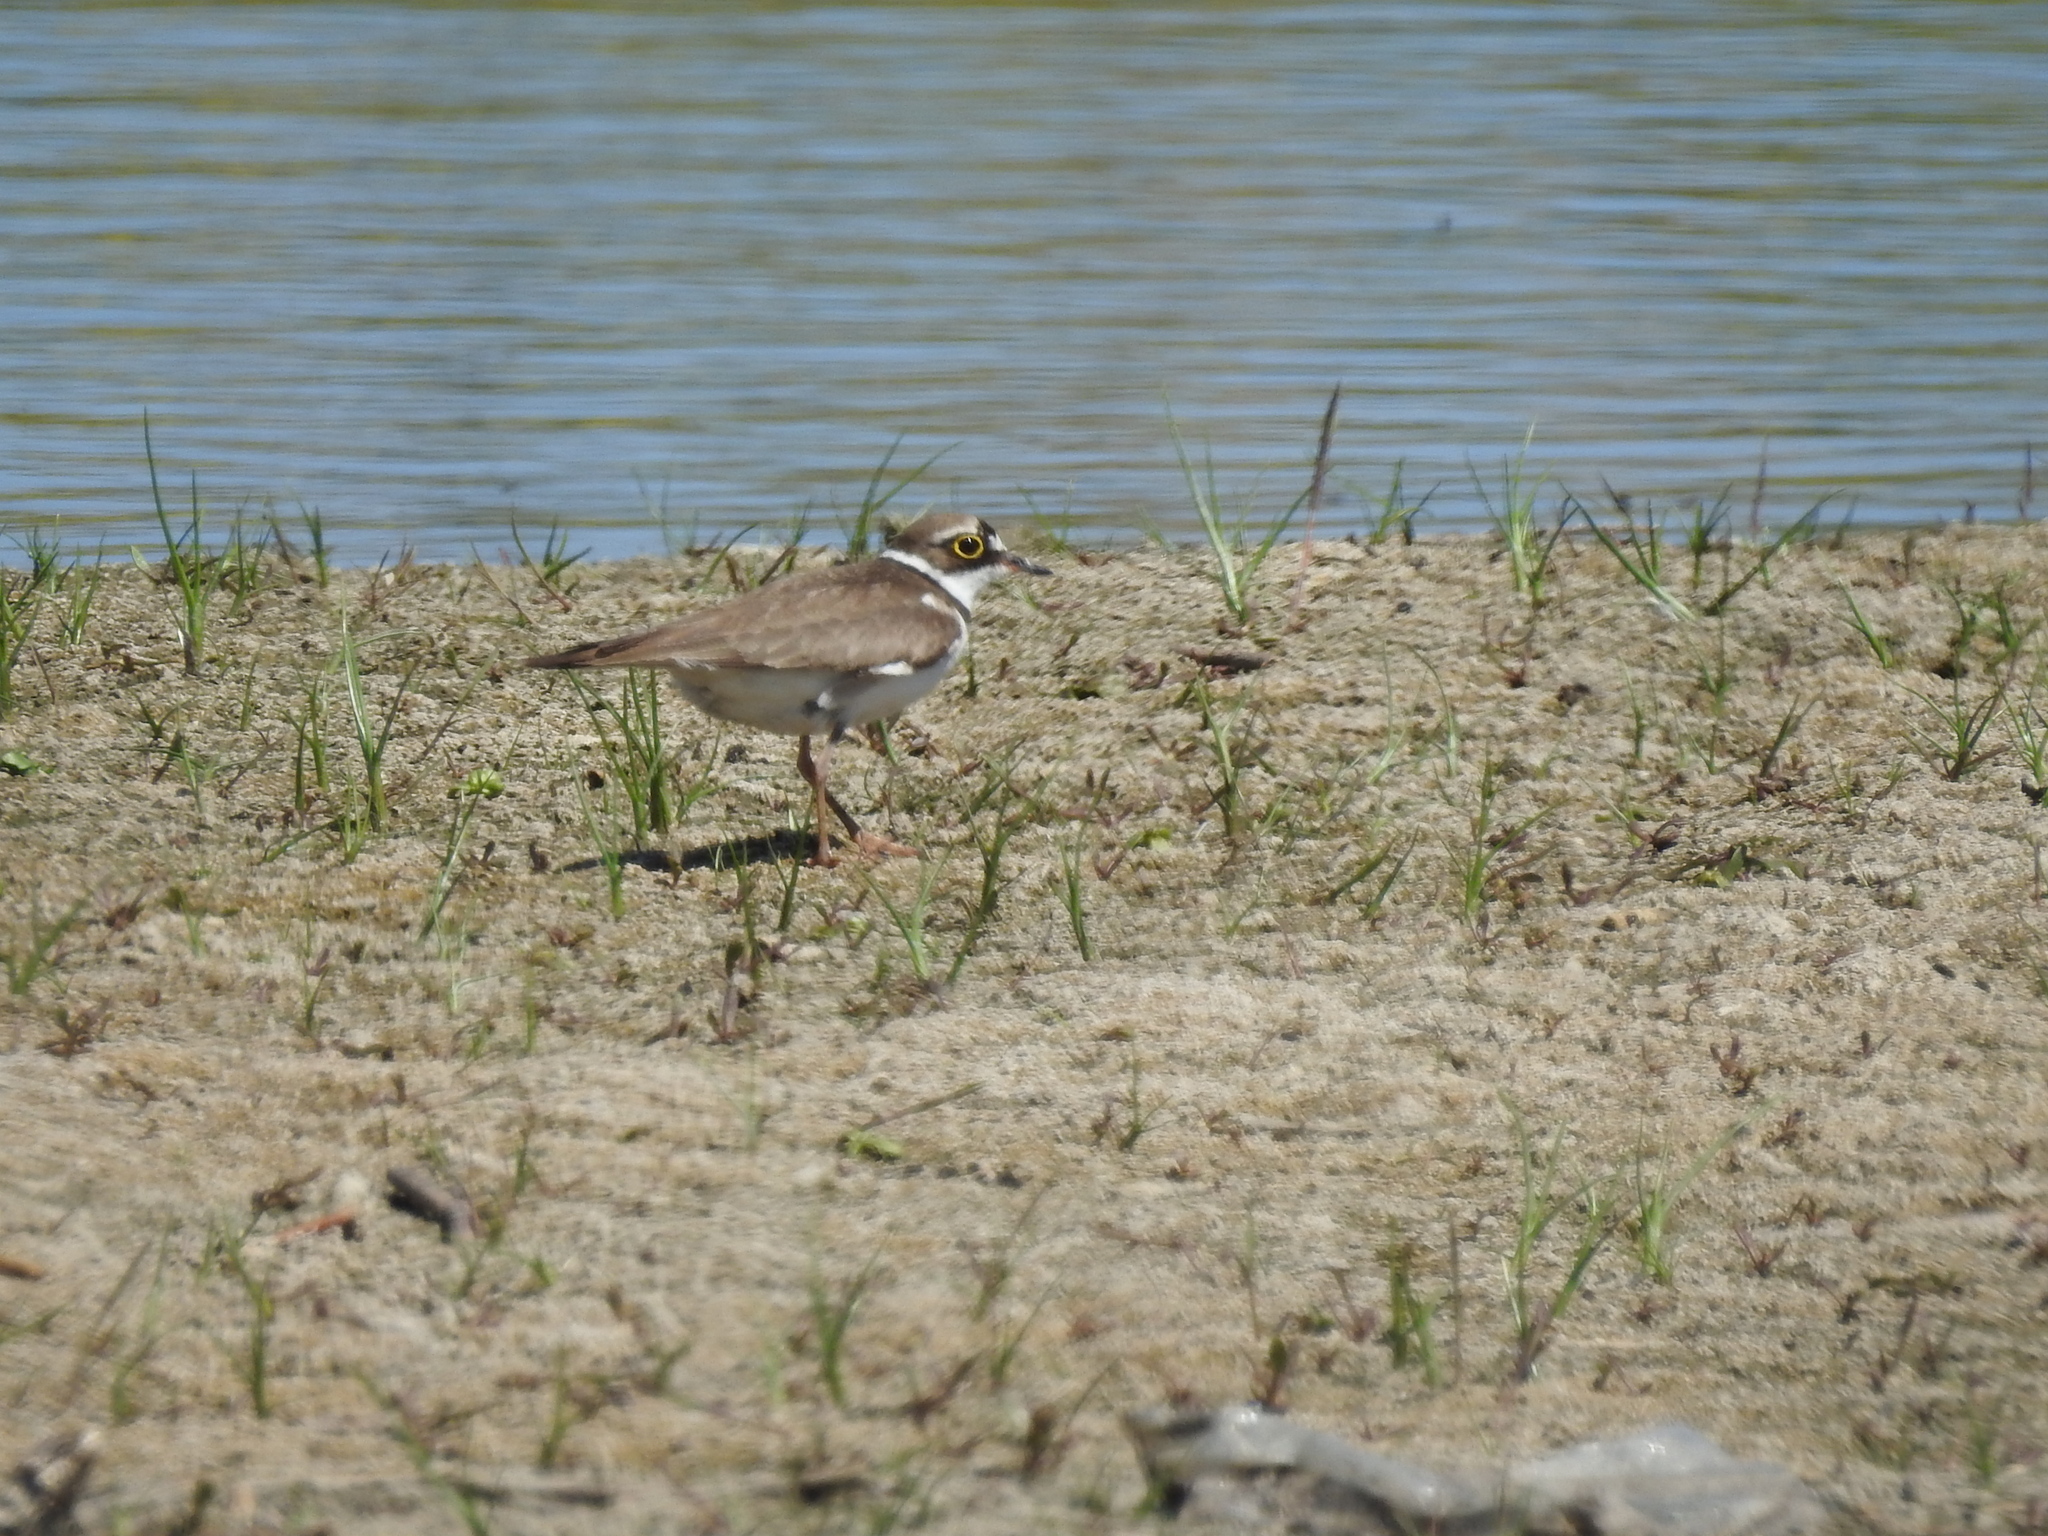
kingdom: Animalia
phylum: Chordata
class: Aves
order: Charadriiformes
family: Charadriidae
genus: Charadrius
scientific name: Charadrius dubius
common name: Little ringed plover
